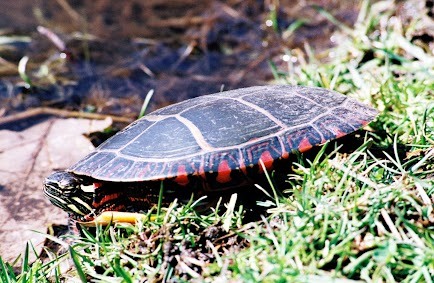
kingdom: Animalia
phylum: Chordata
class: Testudines
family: Emydidae
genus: Chrysemys
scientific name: Chrysemys picta
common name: Painted turtle
